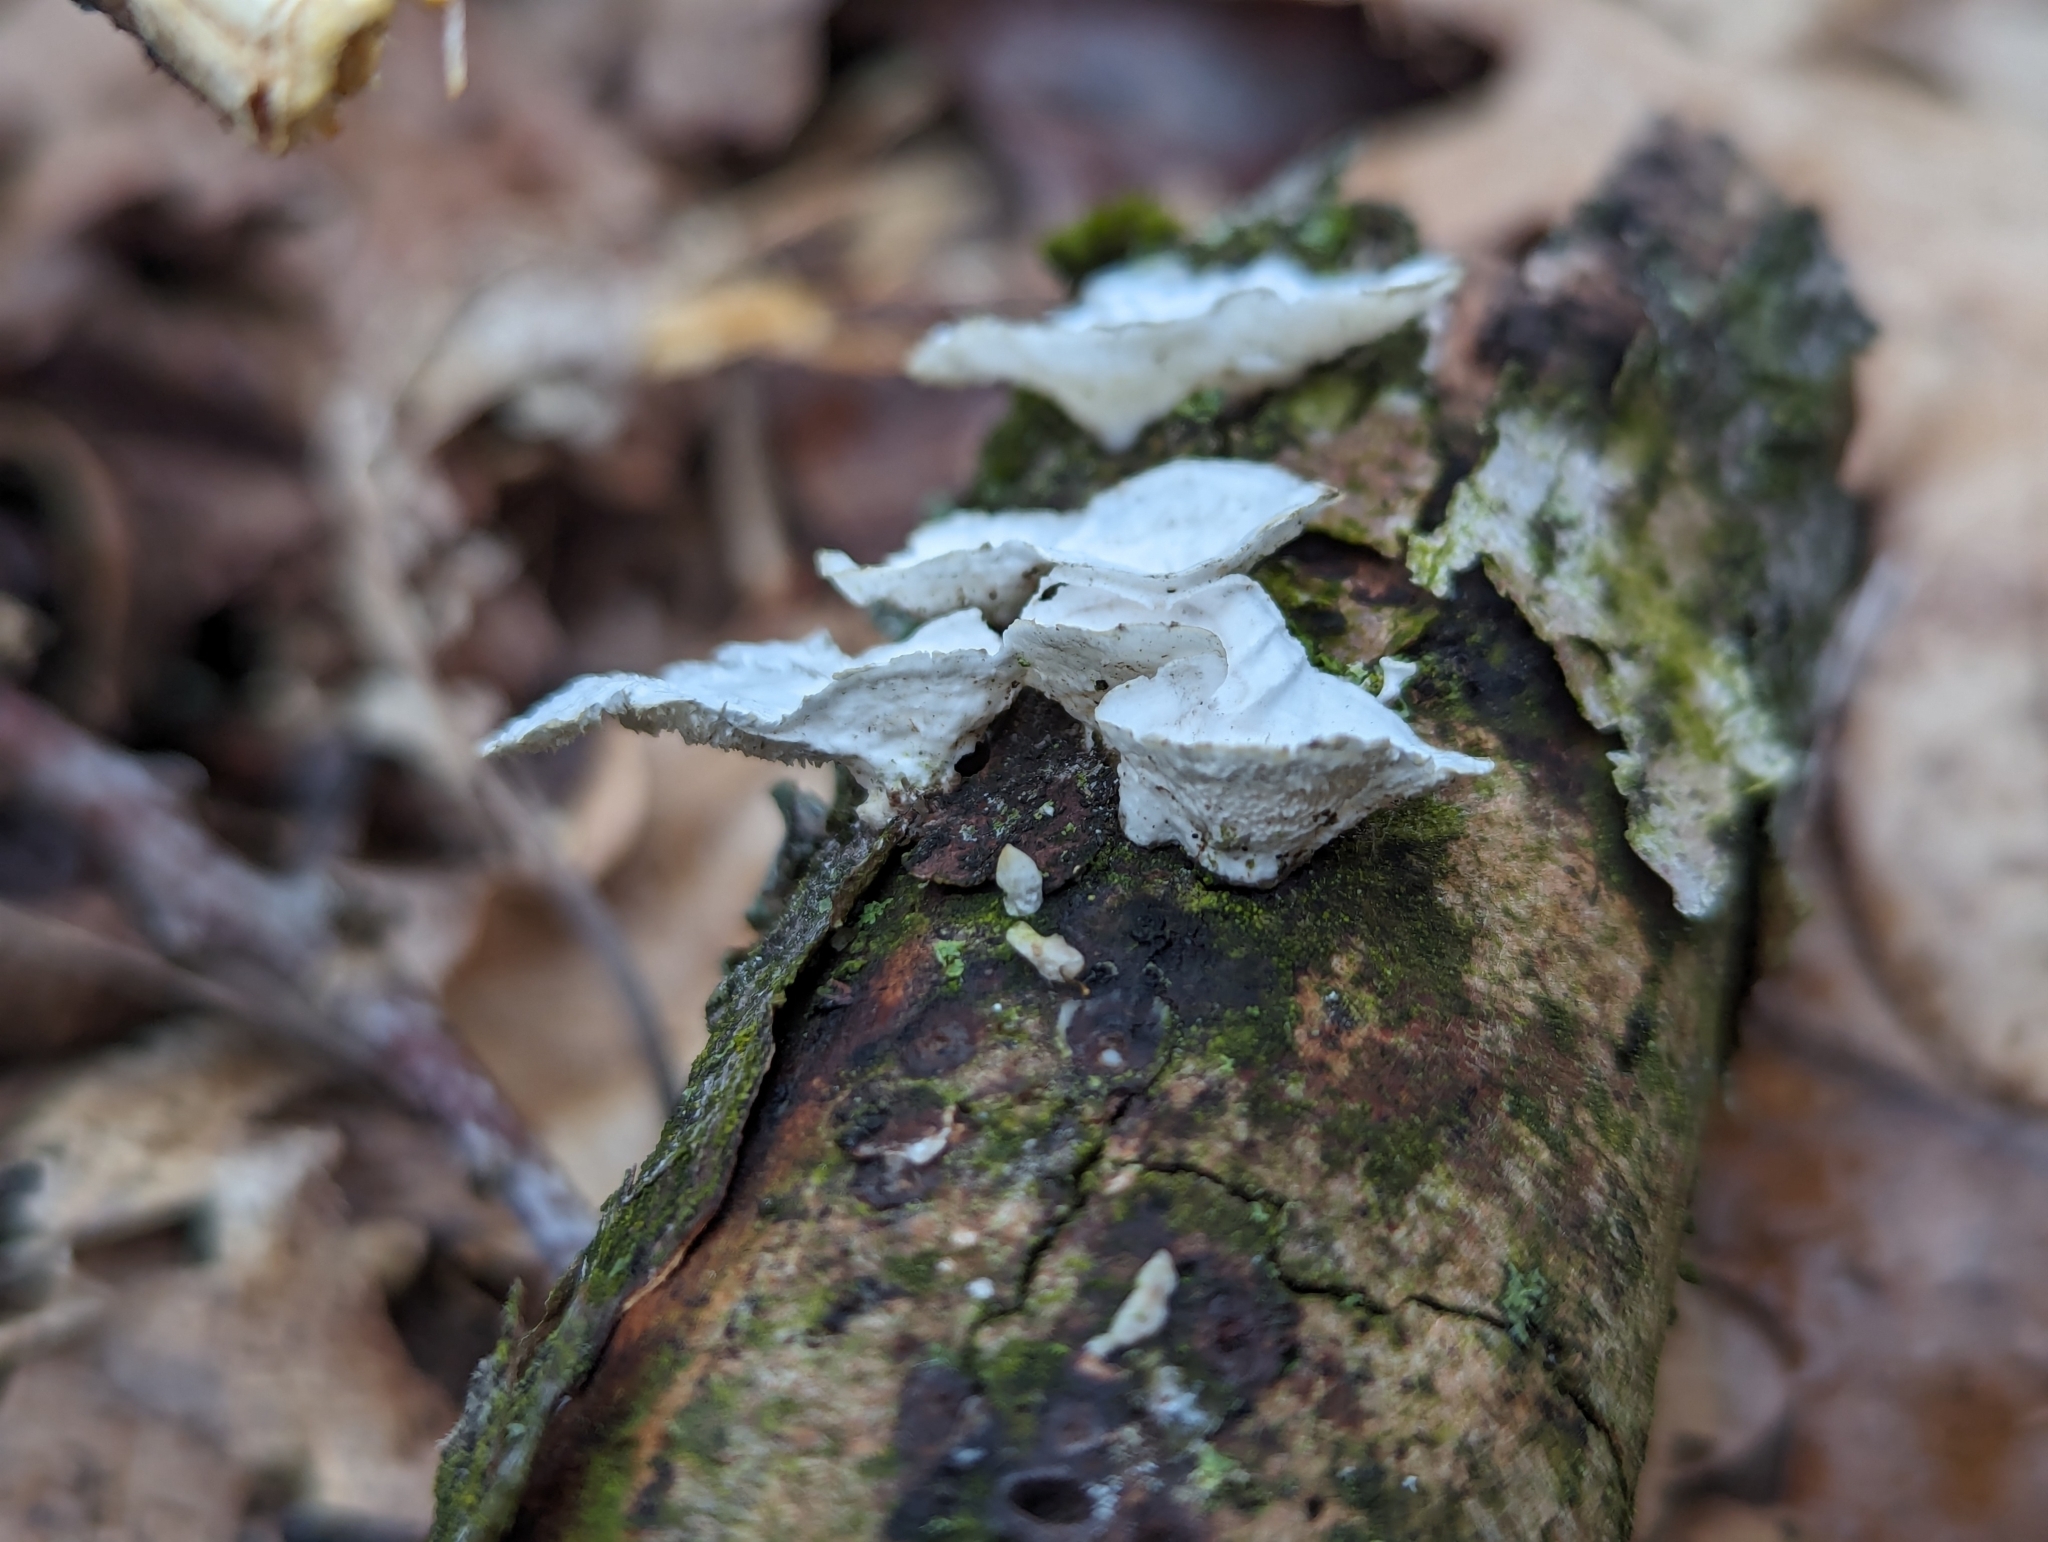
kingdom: Fungi
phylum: Basidiomycota
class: Agaricomycetes
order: Polyporales
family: Polyporaceae
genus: Poronidulus
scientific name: Poronidulus conchifer
